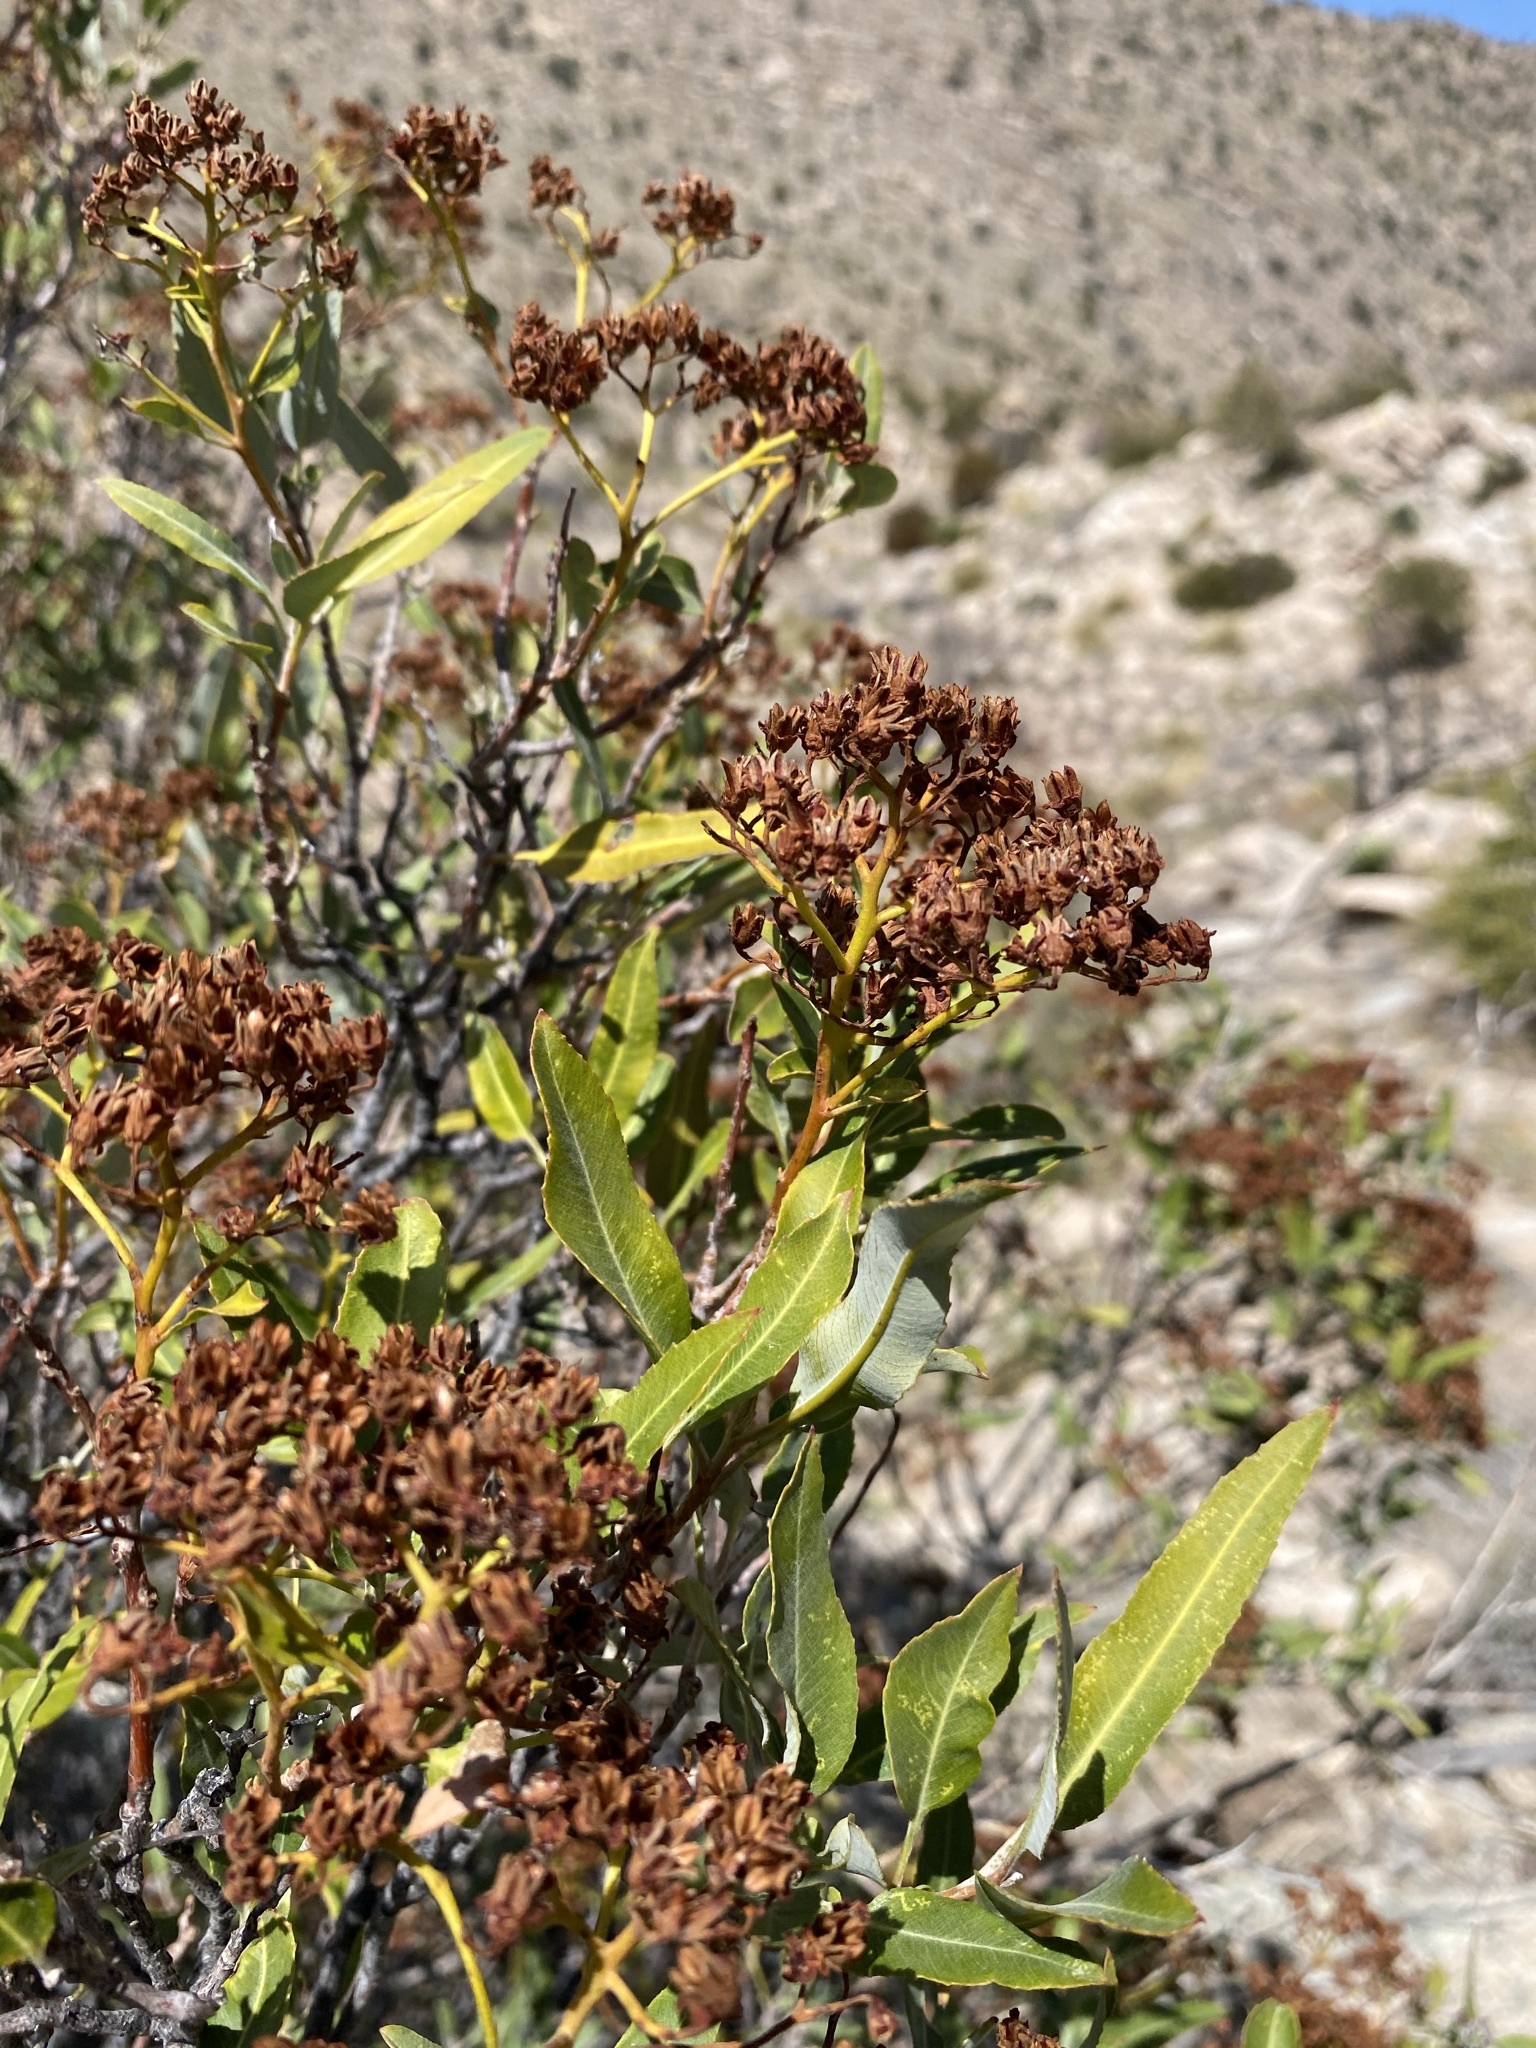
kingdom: Plantae
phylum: Tracheophyta
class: Magnoliopsida
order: Rosales
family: Rosaceae
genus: Vauquelinia
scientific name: Vauquelinia californica
